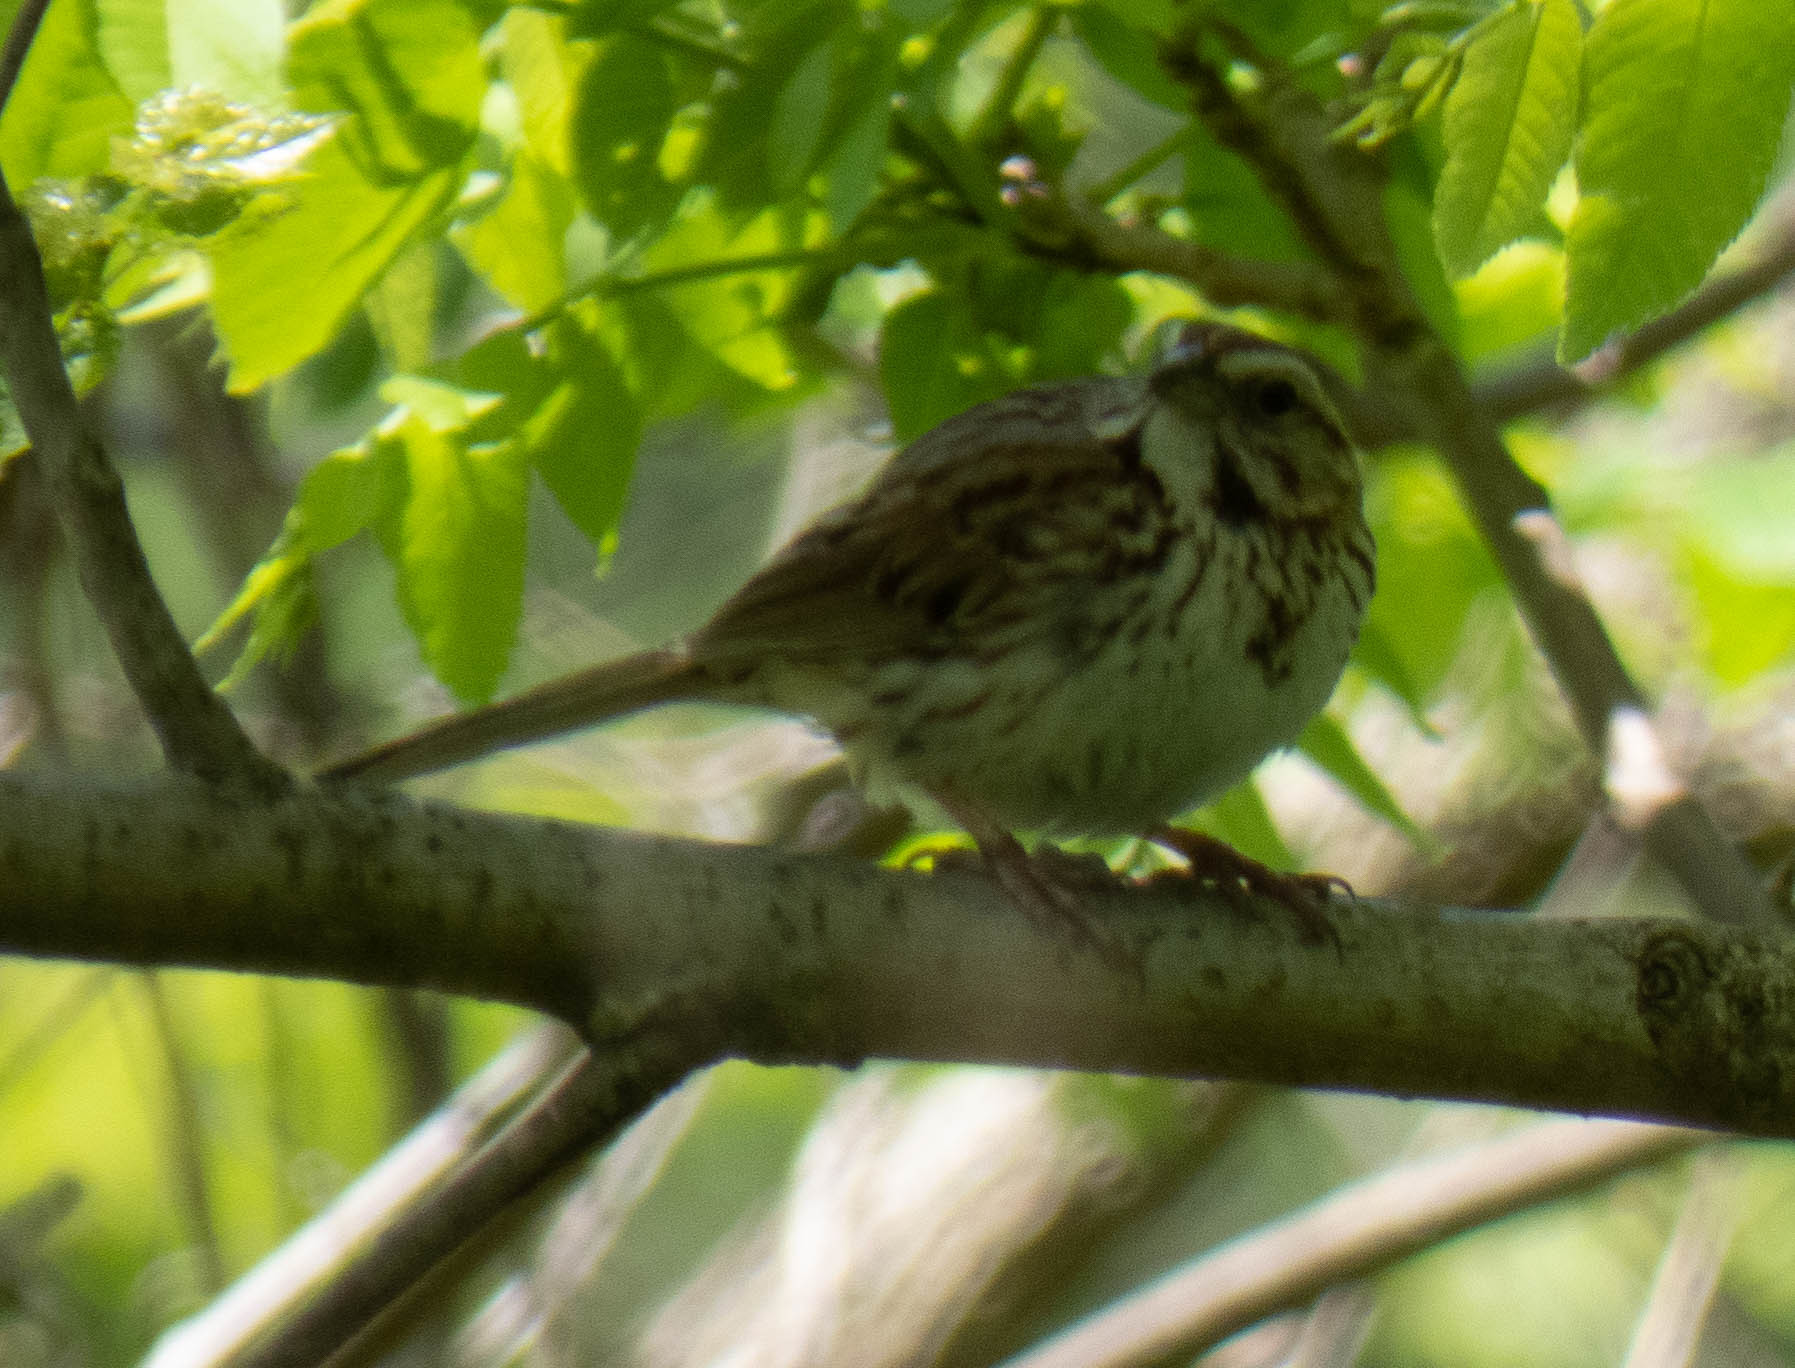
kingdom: Animalia
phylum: Chordata
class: Aves
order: Passeriformes
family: Passerellidae
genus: Melospiza
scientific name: Melospiza melodia
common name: Song sparrow
